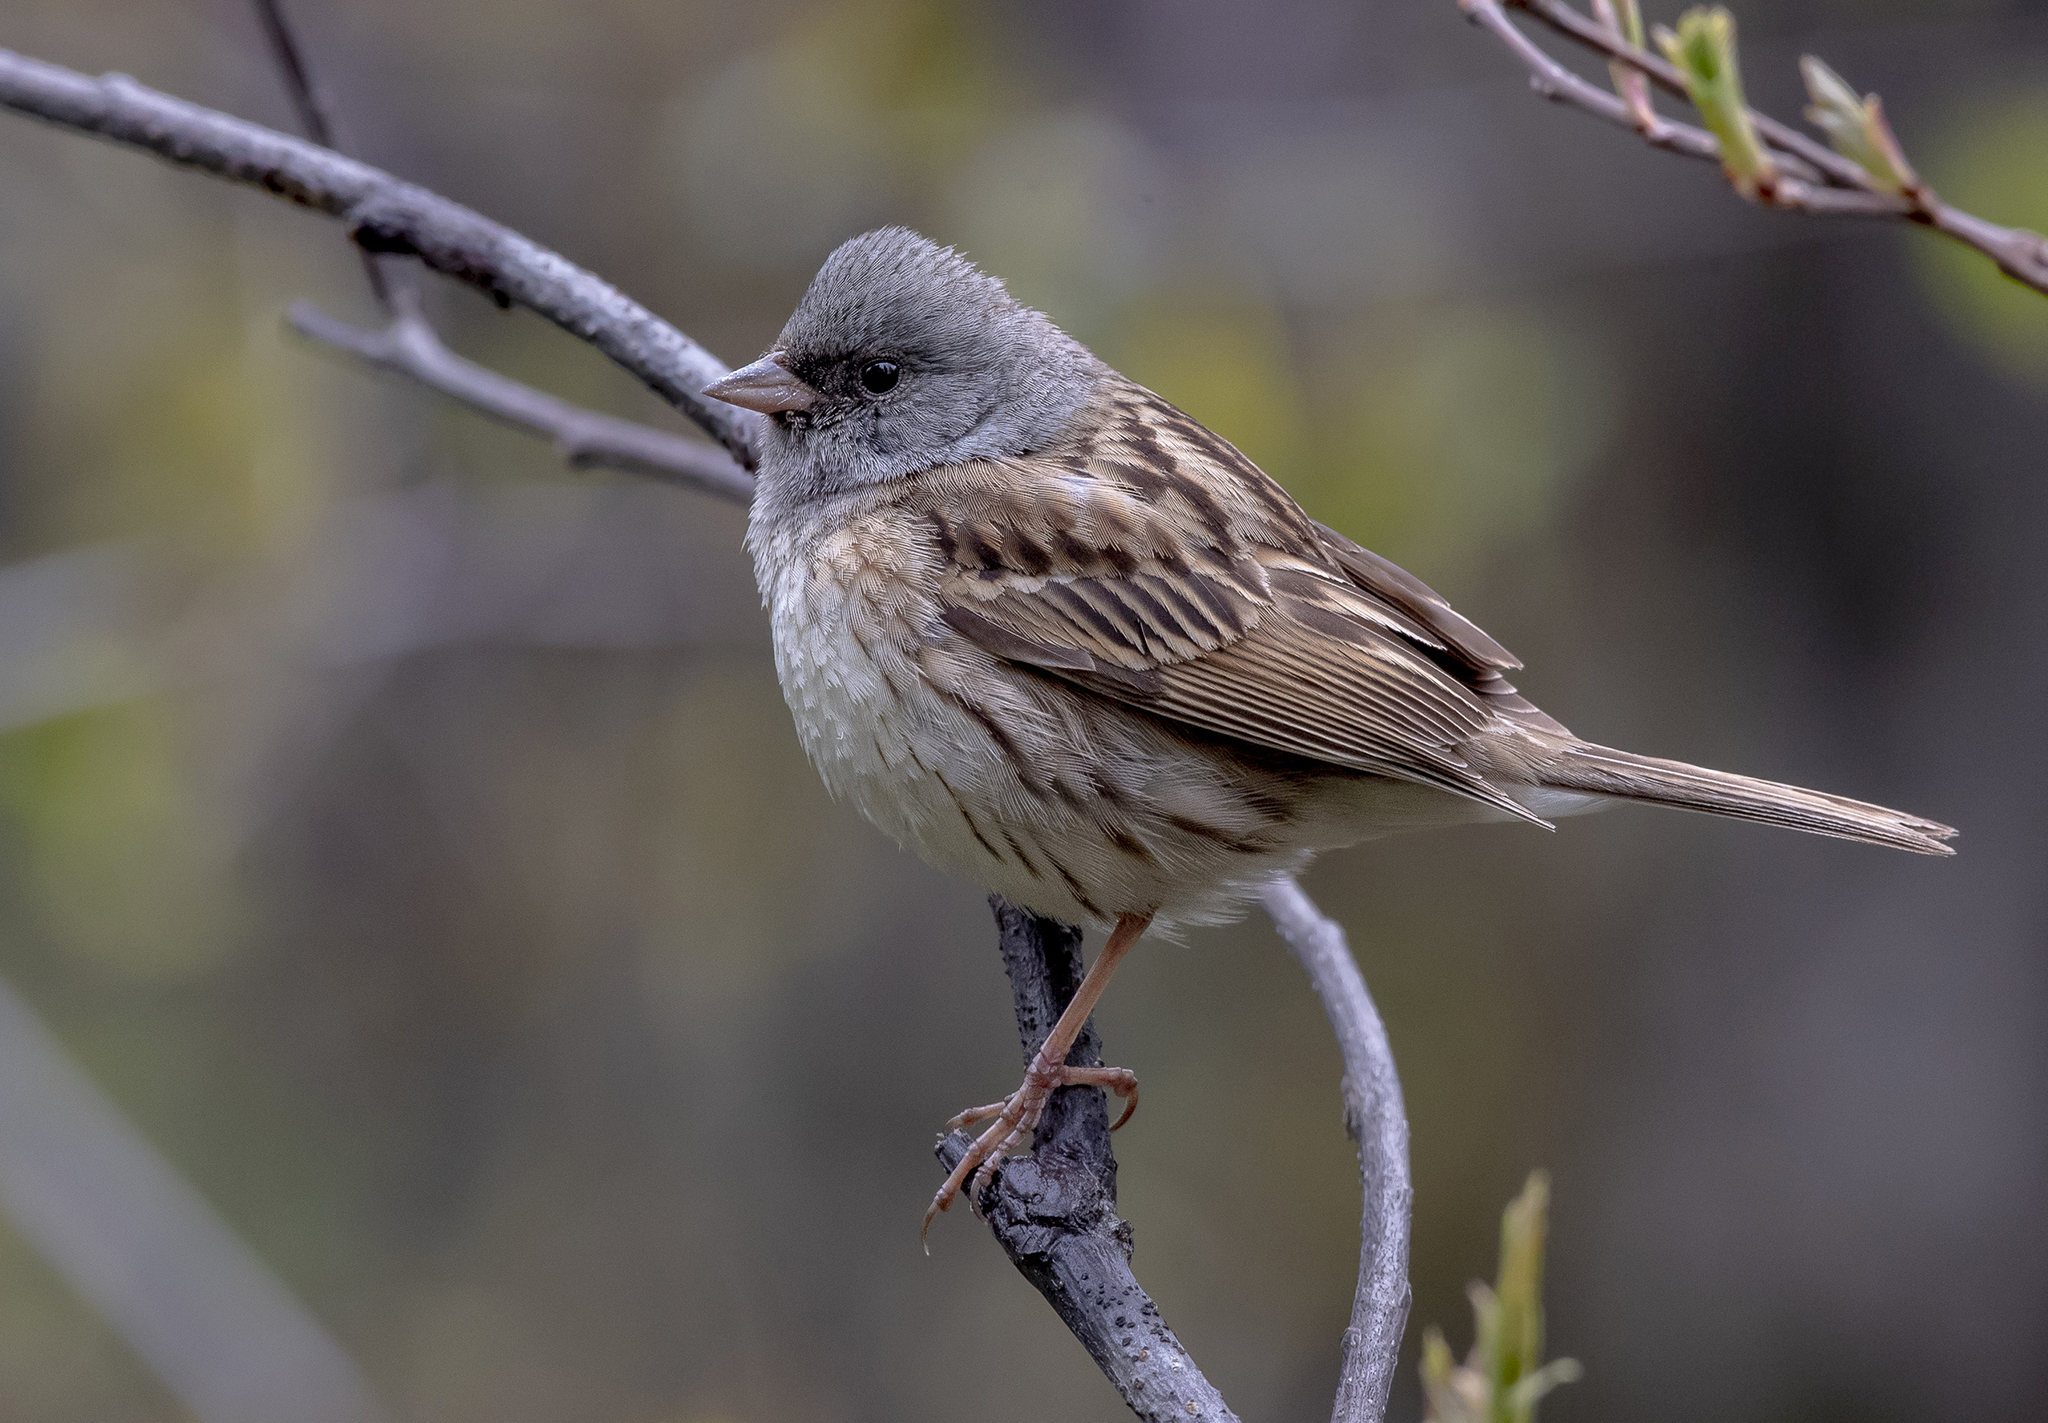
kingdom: Animalia
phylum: Chordata
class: Aves
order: Passeriformes
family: Emberizidae
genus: Emberiza
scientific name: Emberiza spodocephala
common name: Black-faced bunting
